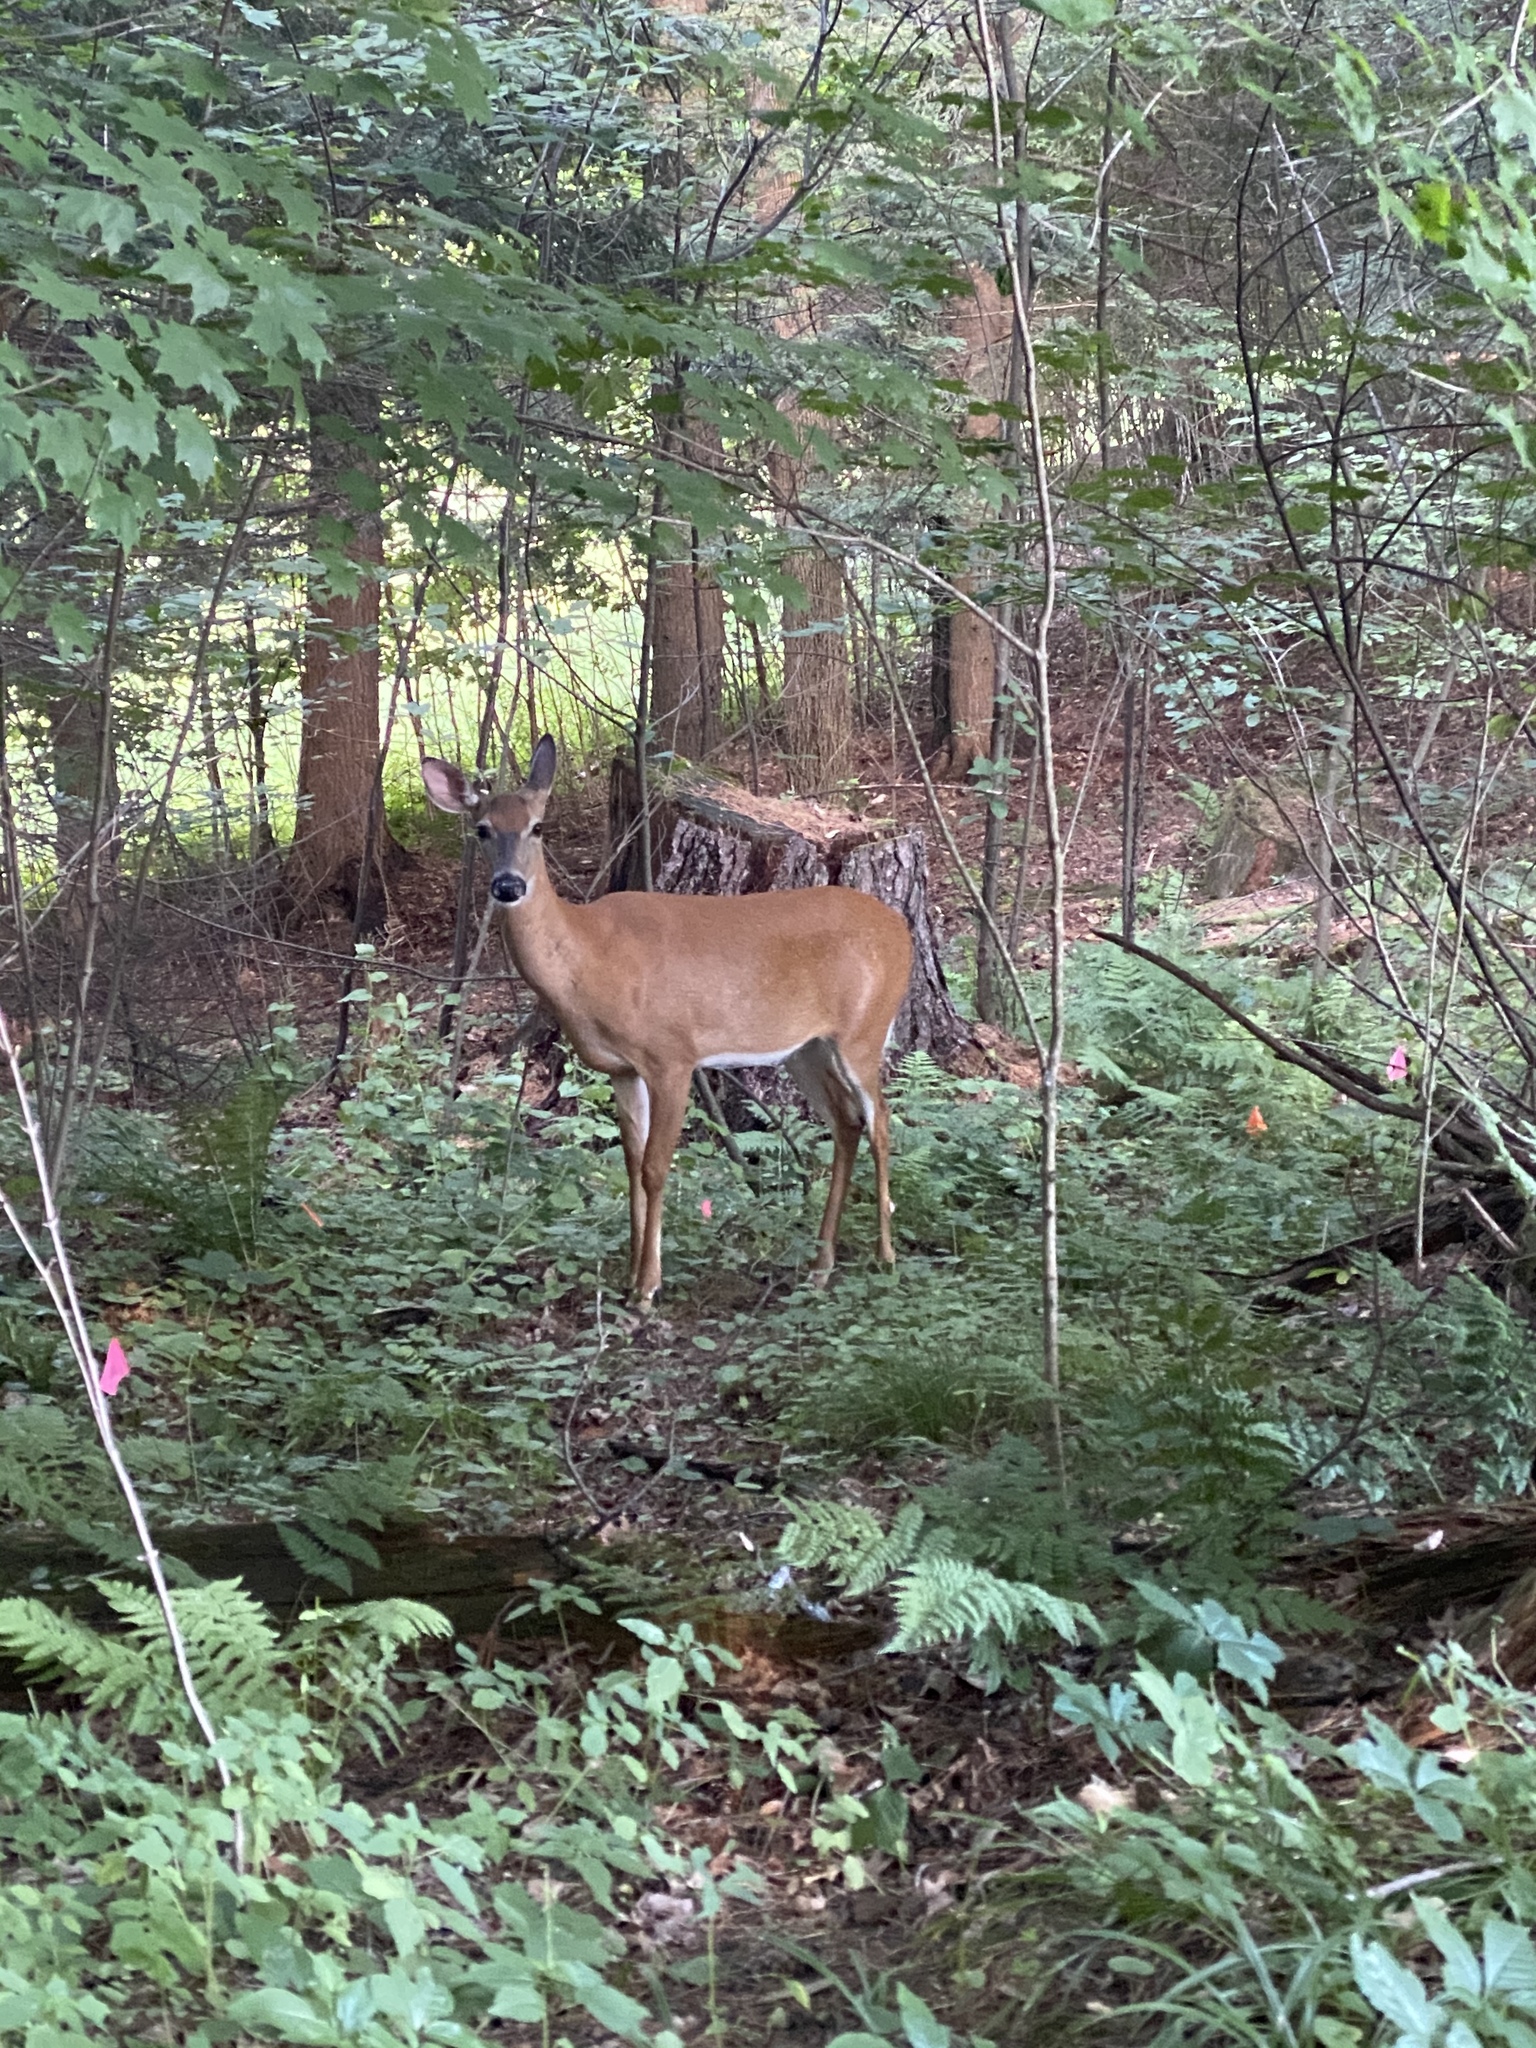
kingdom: Animalia
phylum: Chordata
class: Mammalia
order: Artiodactyla
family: Cervidae
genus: Odocoileus
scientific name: Odocoileus virginianus
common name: White-tailed deer
